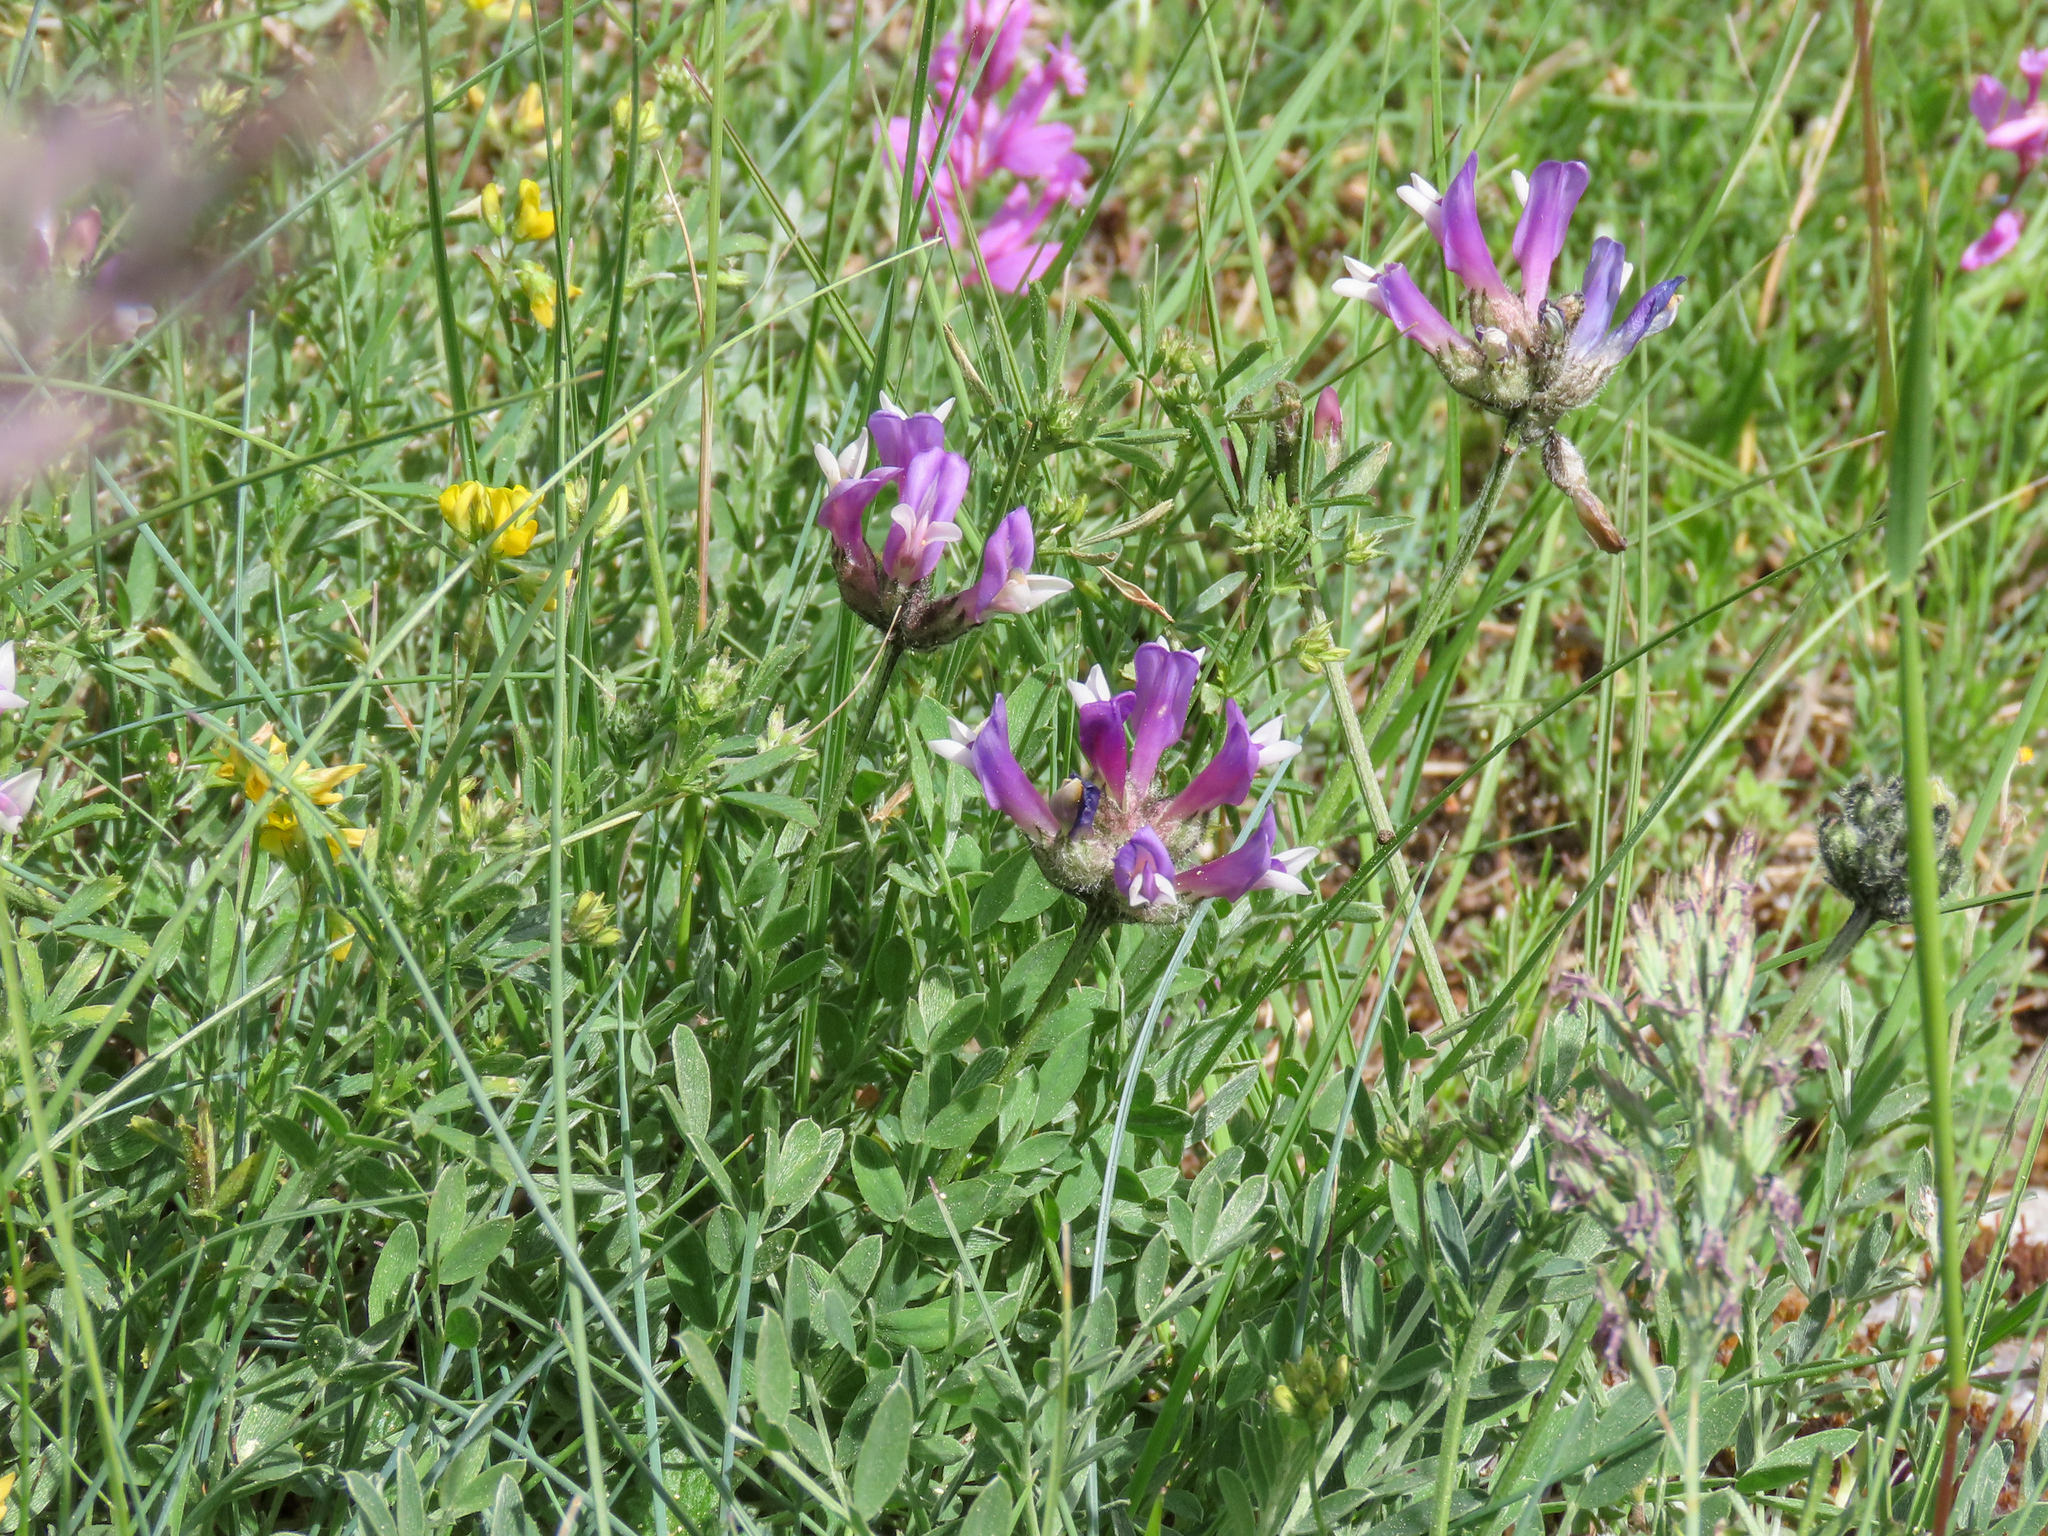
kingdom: Plantae
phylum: Tracheophyta
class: Magnoliopsida
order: Fabales
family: Fabaceae
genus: Astragalus
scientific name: Astragalus vesicarius
